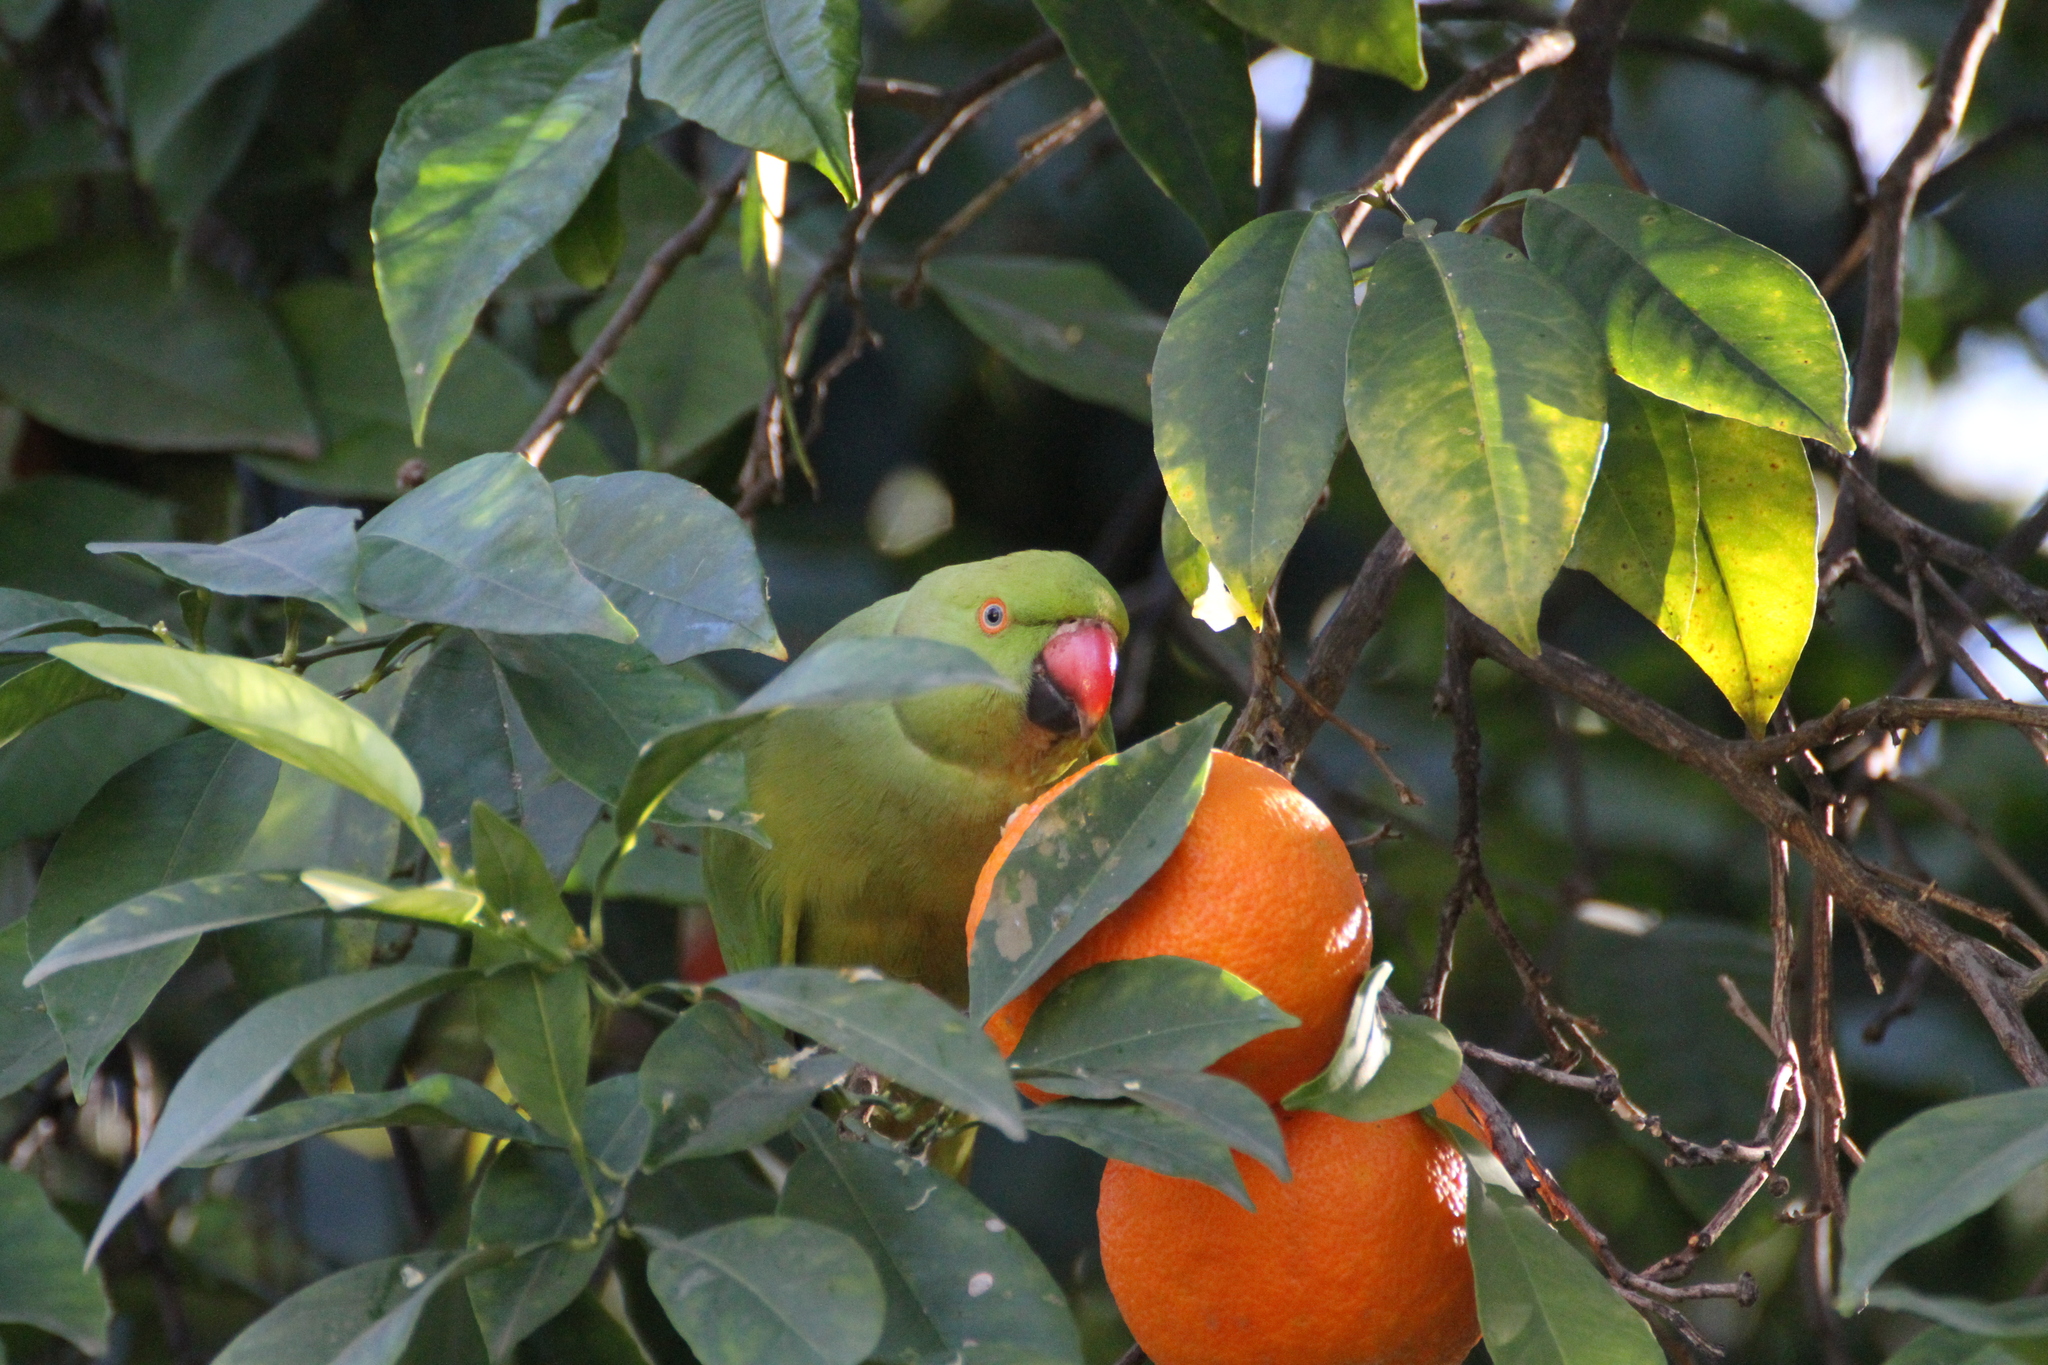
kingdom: Animalia
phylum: Chordata
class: Aves
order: Psittaciformes
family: Psittacidae
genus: Psittacula
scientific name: Psittacula krameri
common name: Rose-ringed parakeet
